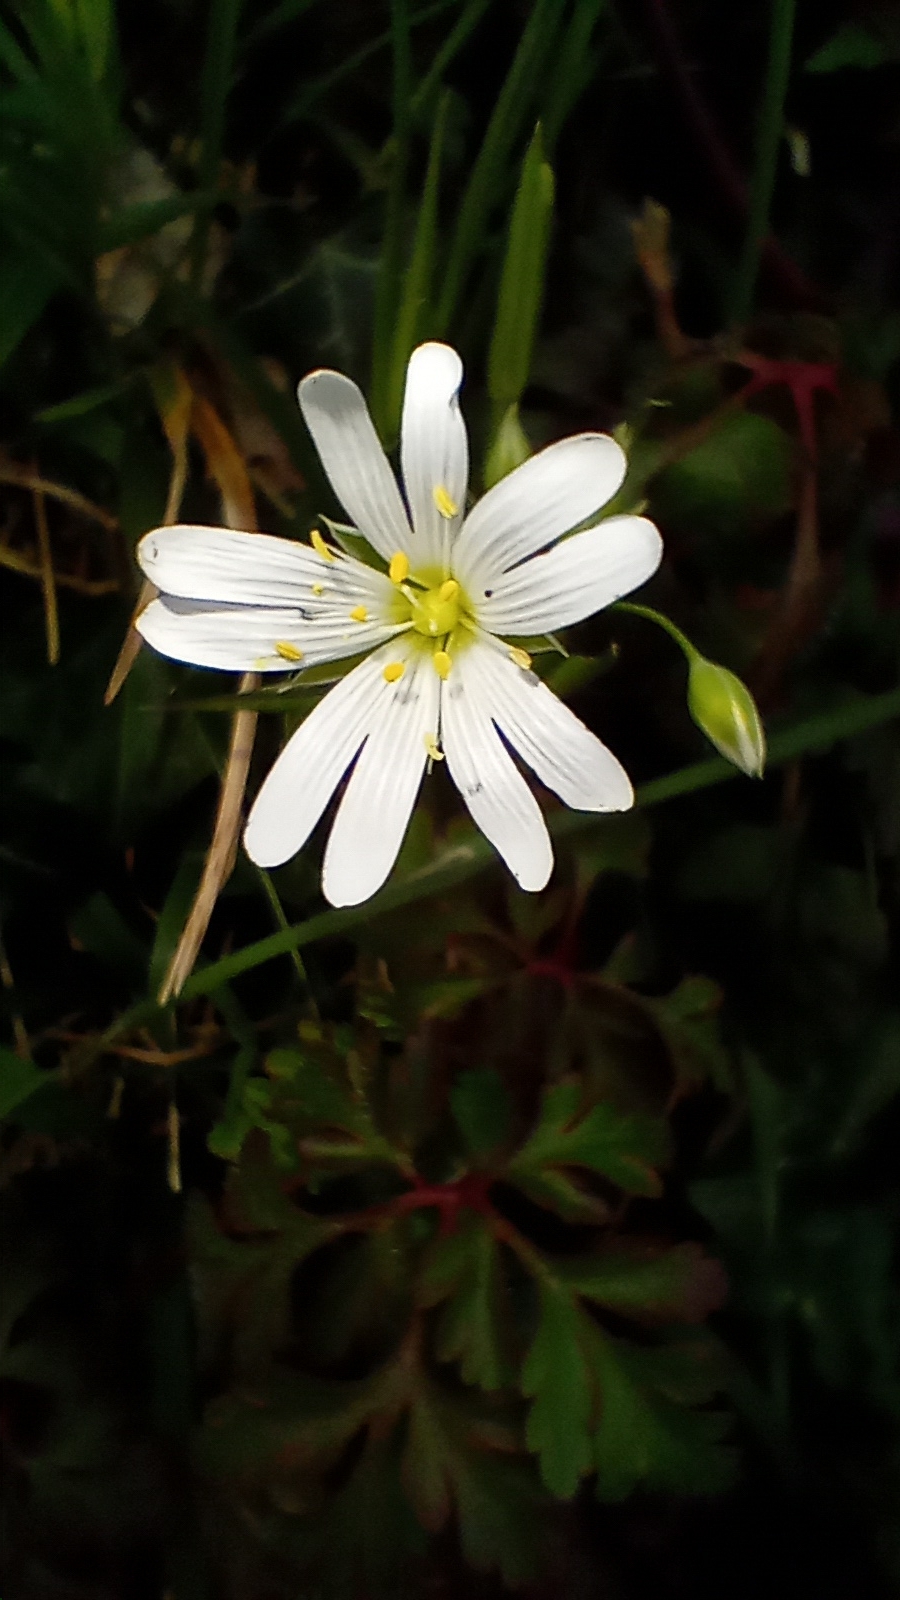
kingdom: Plantae
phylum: Tracheophyta
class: Magnoliopsida
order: Caryophyllales
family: Caryophyllaceae
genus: Rabelera
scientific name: Rabelera holostea
